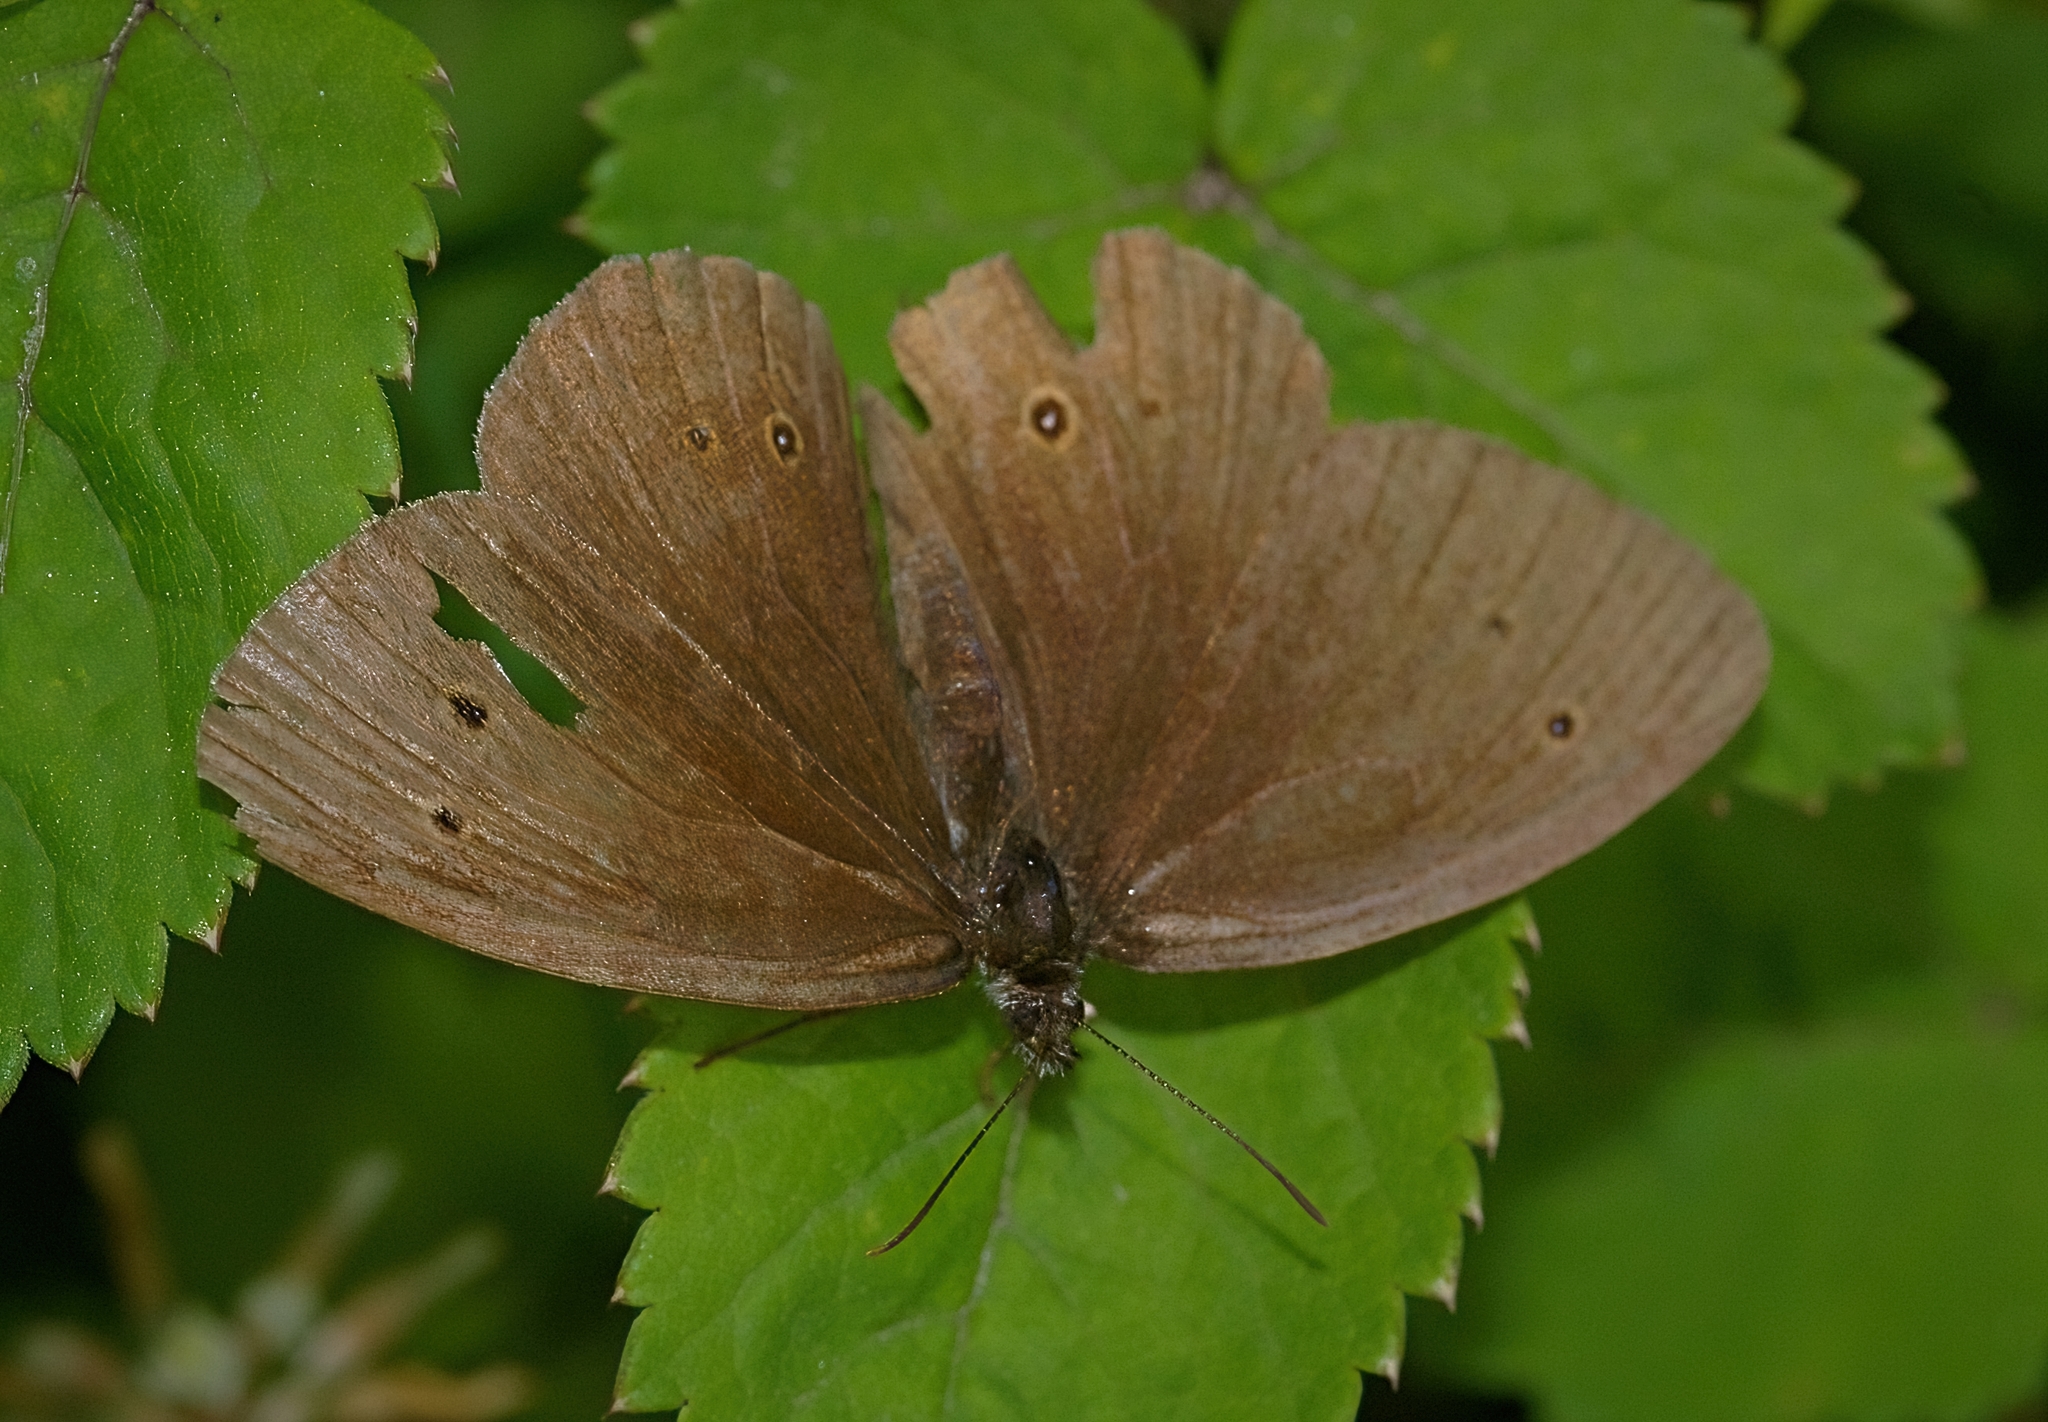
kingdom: Animalia
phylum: Arthropoda
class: Insecta
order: Lepidoptera
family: Nymphalidae
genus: Aphantopus
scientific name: Aphantopus hyperantus
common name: Ringlet
